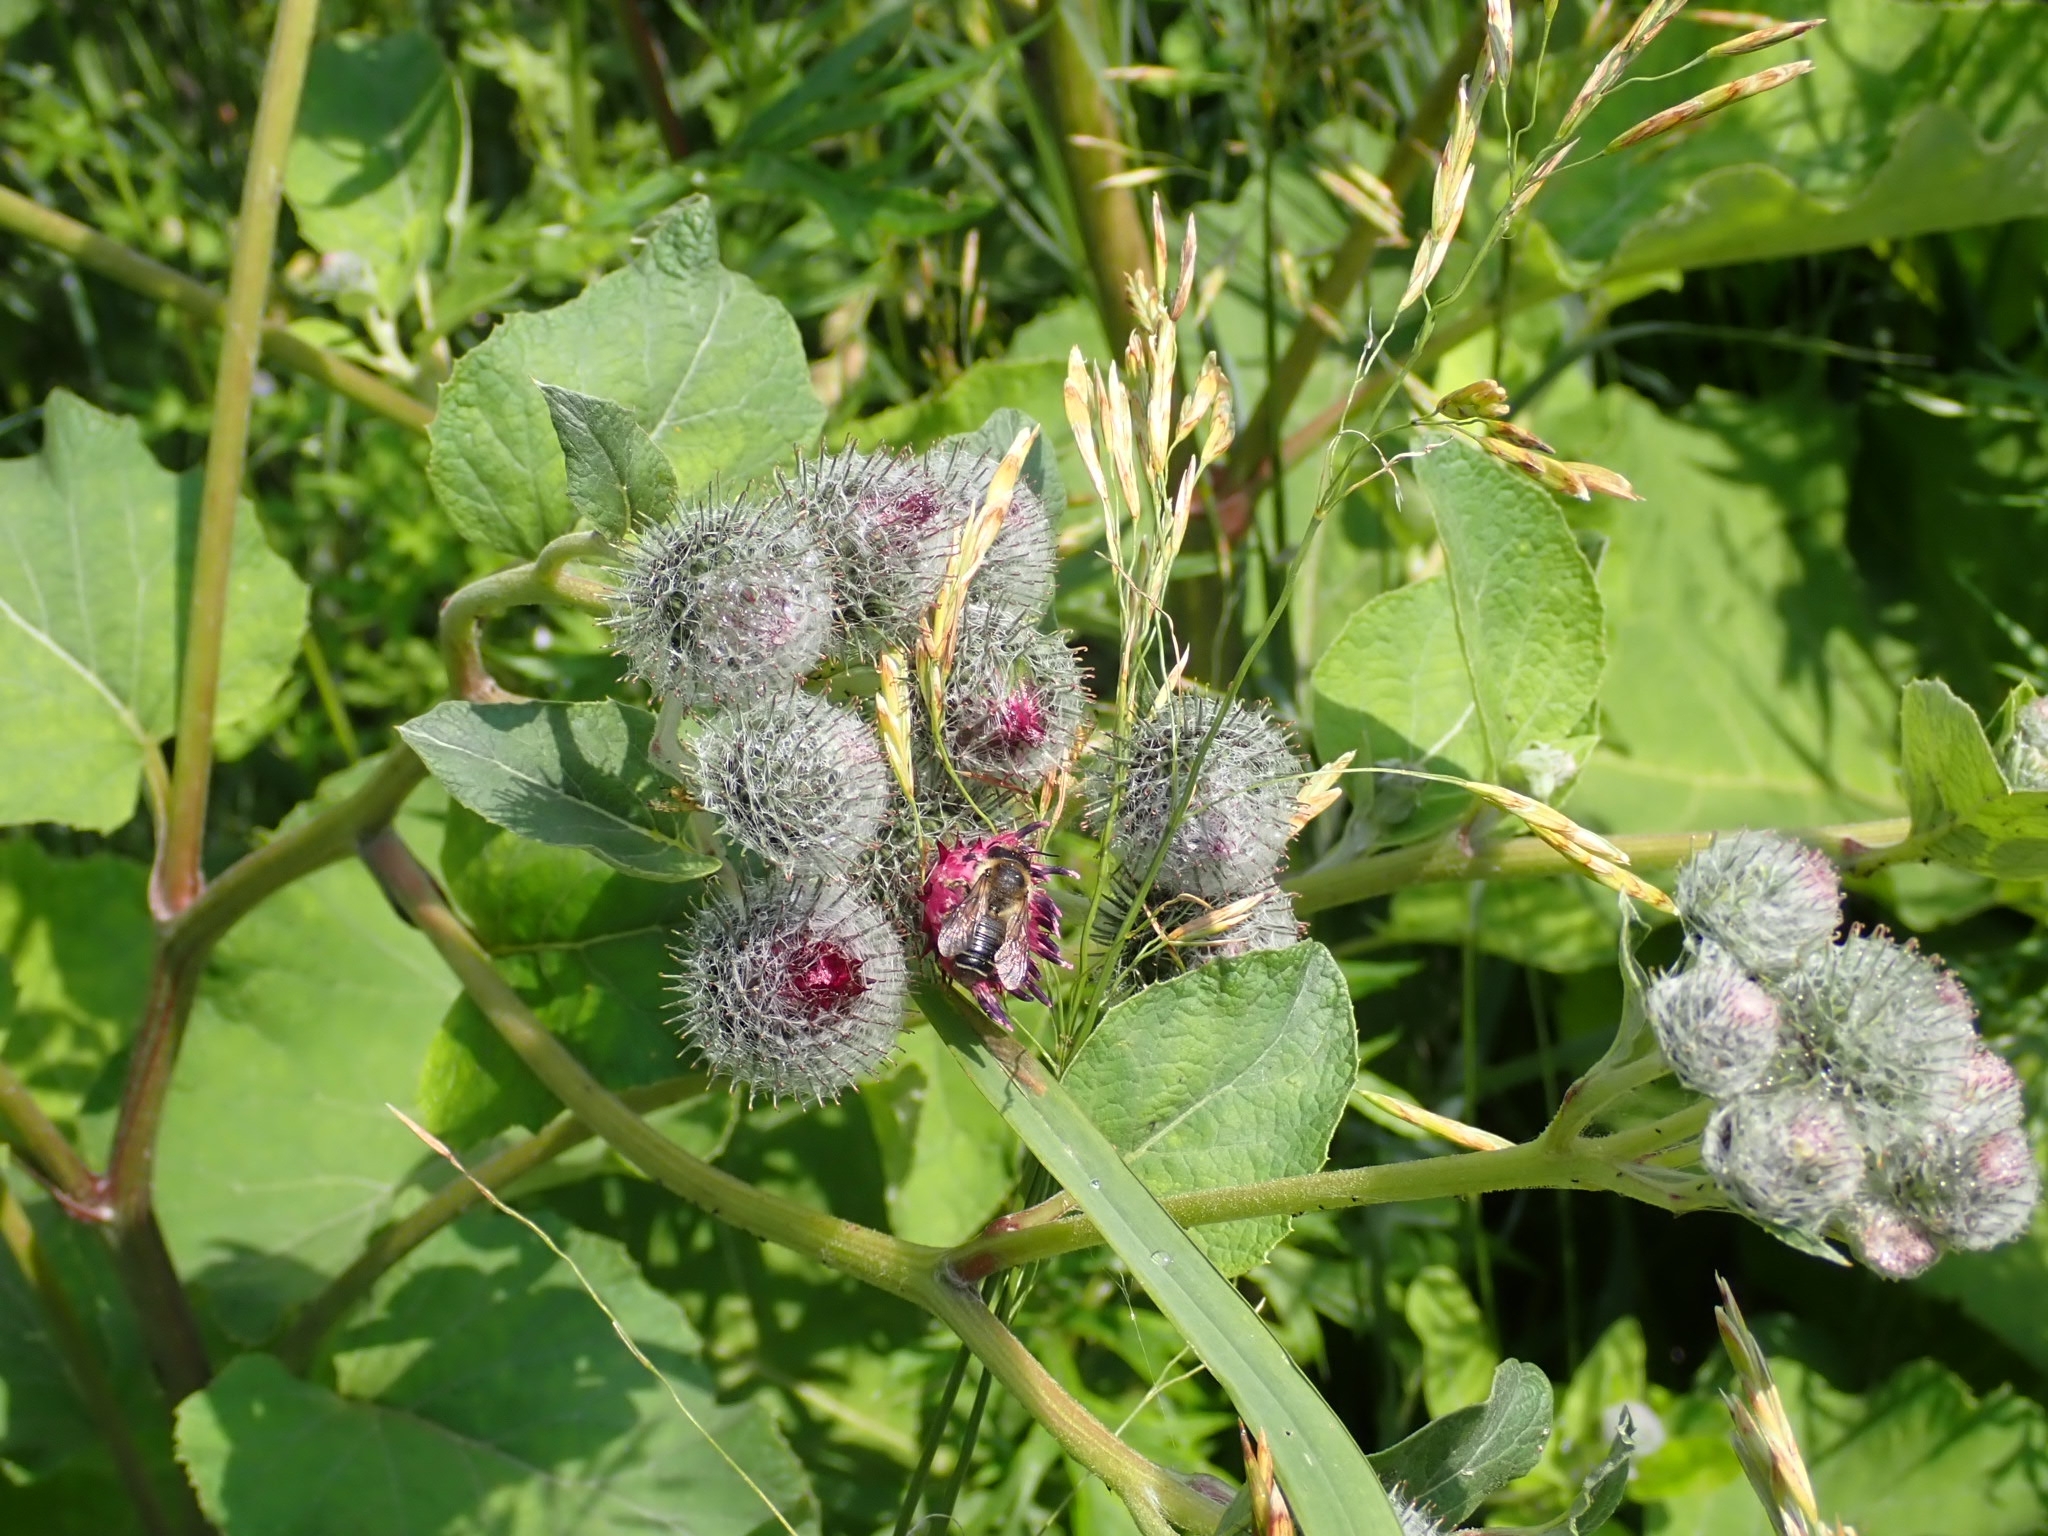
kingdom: Plantae
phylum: Tracheophyta
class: Magnoliopsida
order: Asterales
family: Asteraceae
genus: Arctium
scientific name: Arctium tomentosum
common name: Woolly burdock
